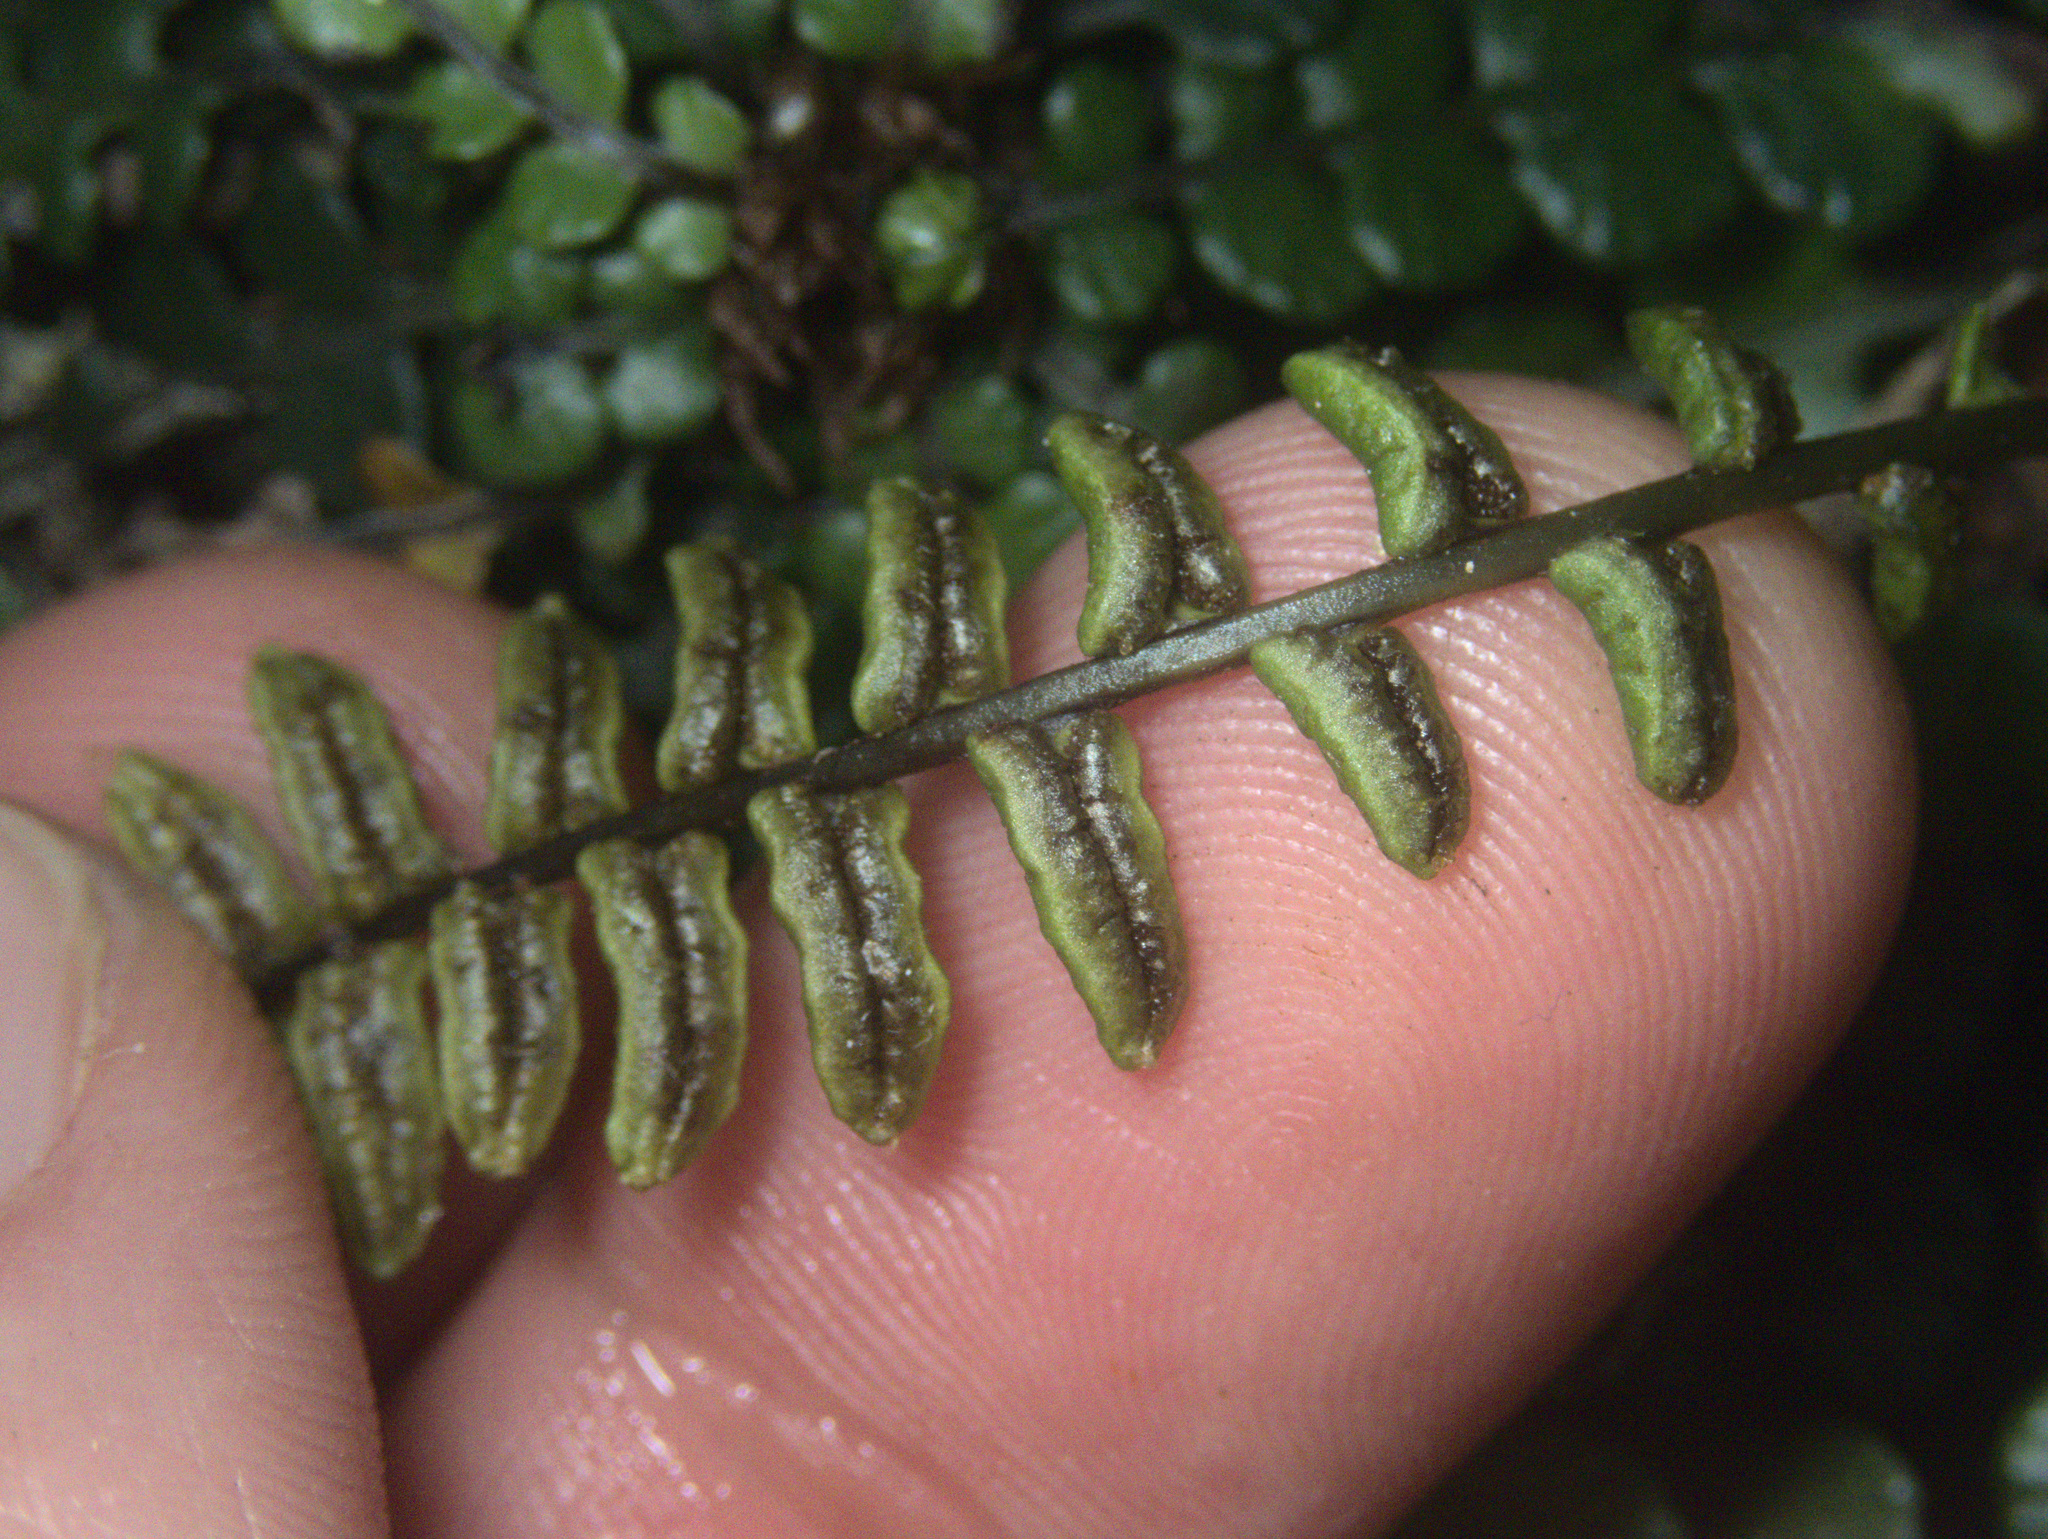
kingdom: Plantae
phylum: Tracheophyta
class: Polypodiopsida
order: Polypodiales
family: Blechnaceae
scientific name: Blechnaceae
